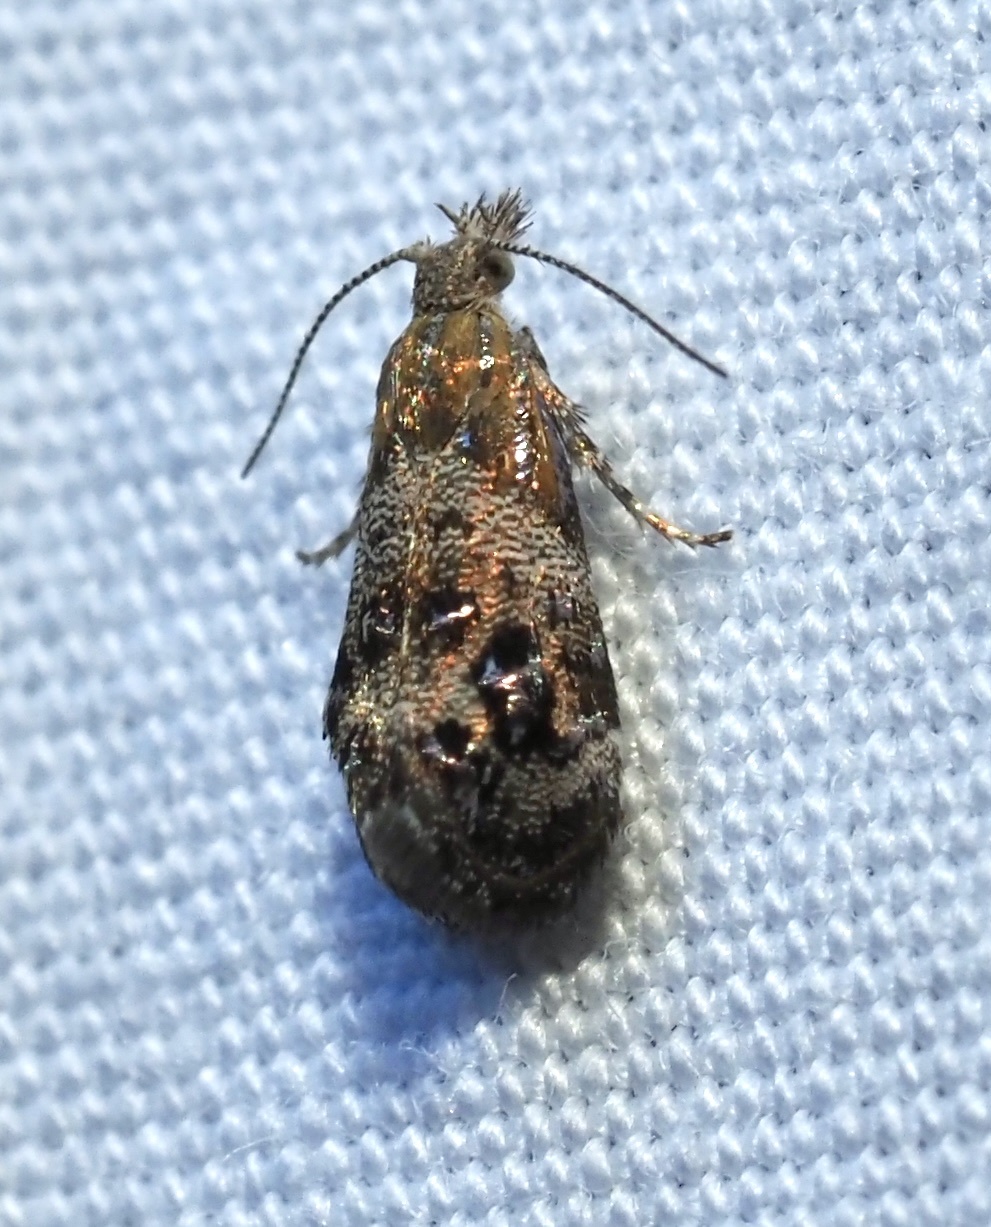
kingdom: Animalia
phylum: Arthropoda
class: Insecta
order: Lepidoptera
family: Choreutidae
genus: Tebenna
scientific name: Tebenna gnaphaliella
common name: Everlasting tebenna moth
